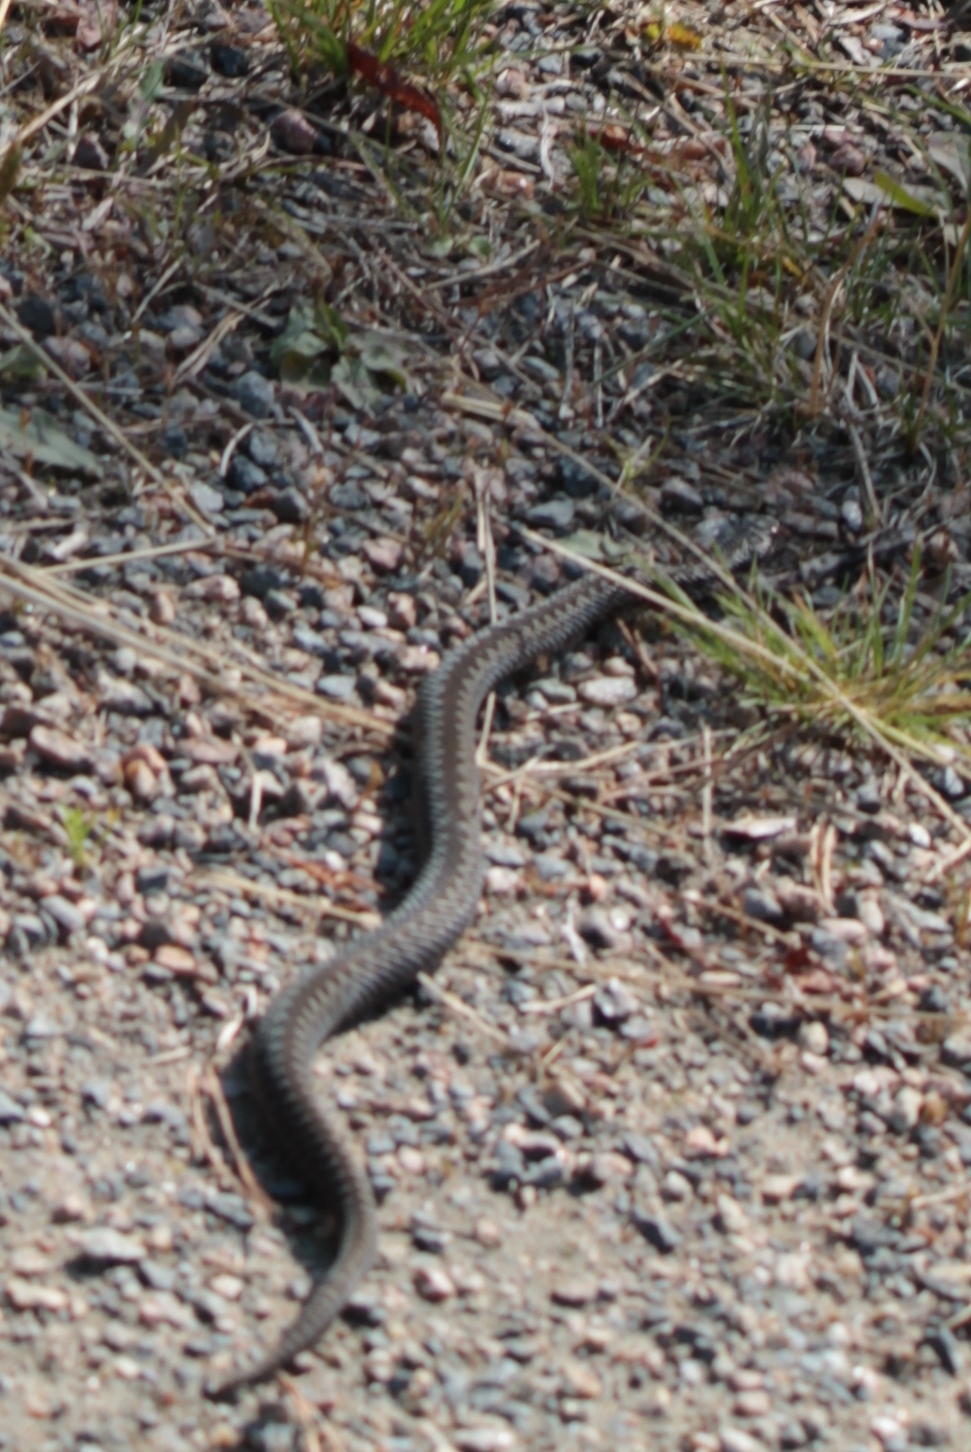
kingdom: Animalia
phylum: Chordata
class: Squamata
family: Viperidae
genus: Vipera
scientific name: Vipera berus
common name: Adder
